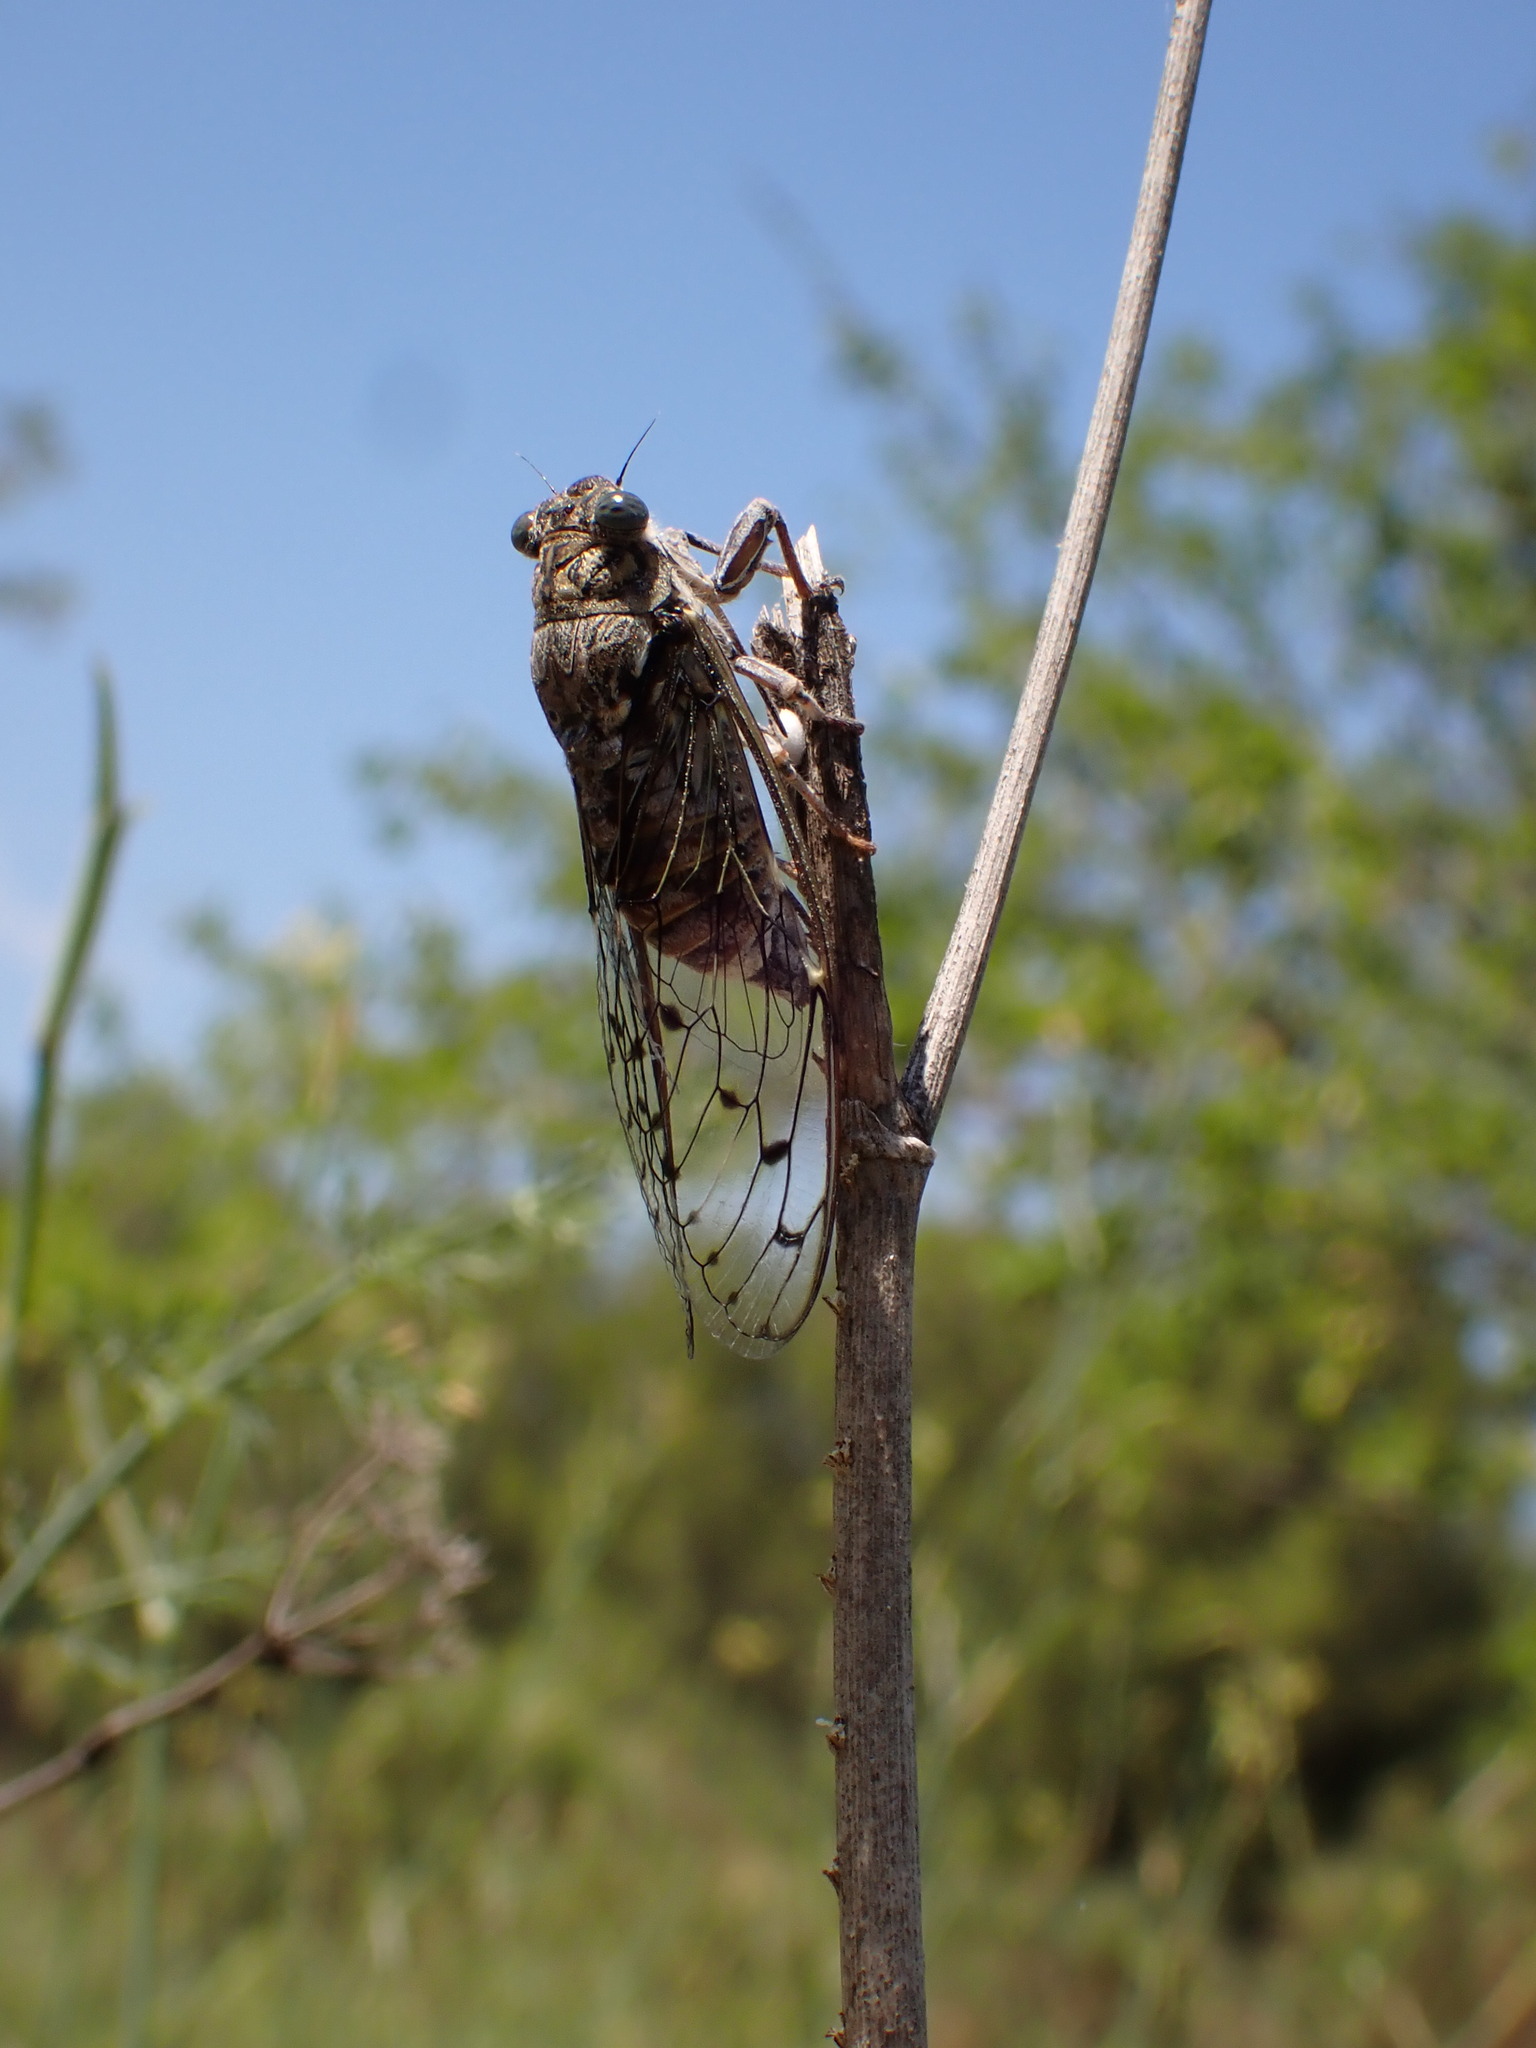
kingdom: Animalia
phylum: Arthropoda
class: Insecta
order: Hemiptera
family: Cicadidae
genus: Cicada
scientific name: Cicada orni
